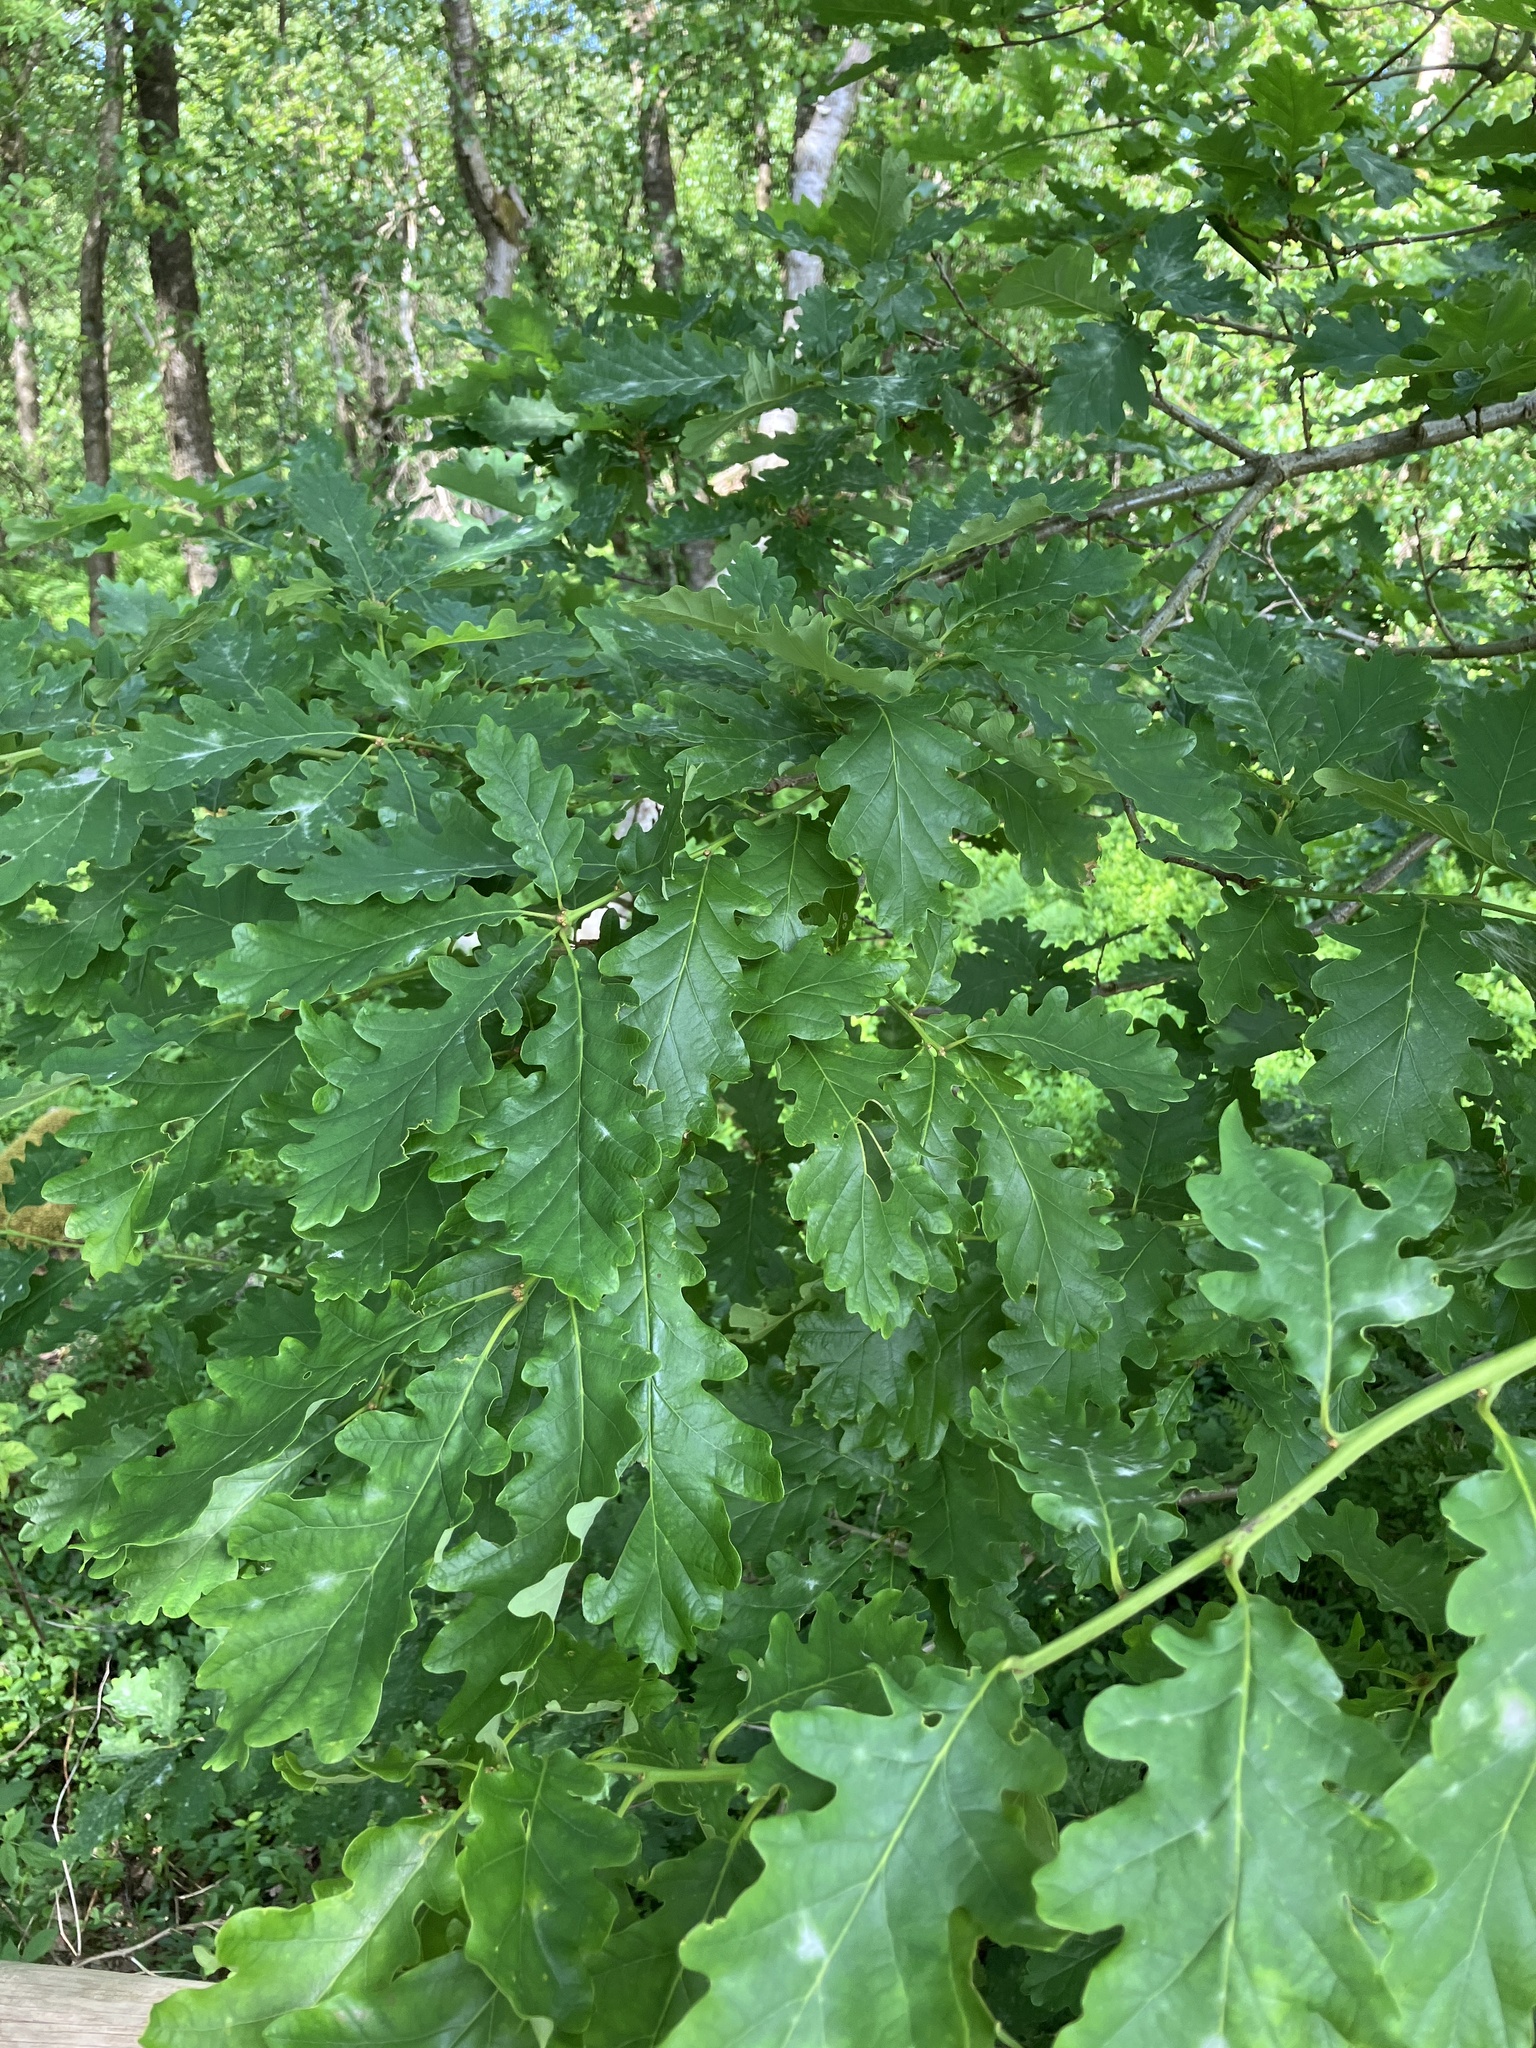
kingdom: Plantae
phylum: Tracheophyta
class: Magnoliopsida
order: Fagales
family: Fagaceae
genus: Quercus
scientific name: Quercus petraea
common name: Sessile oak
